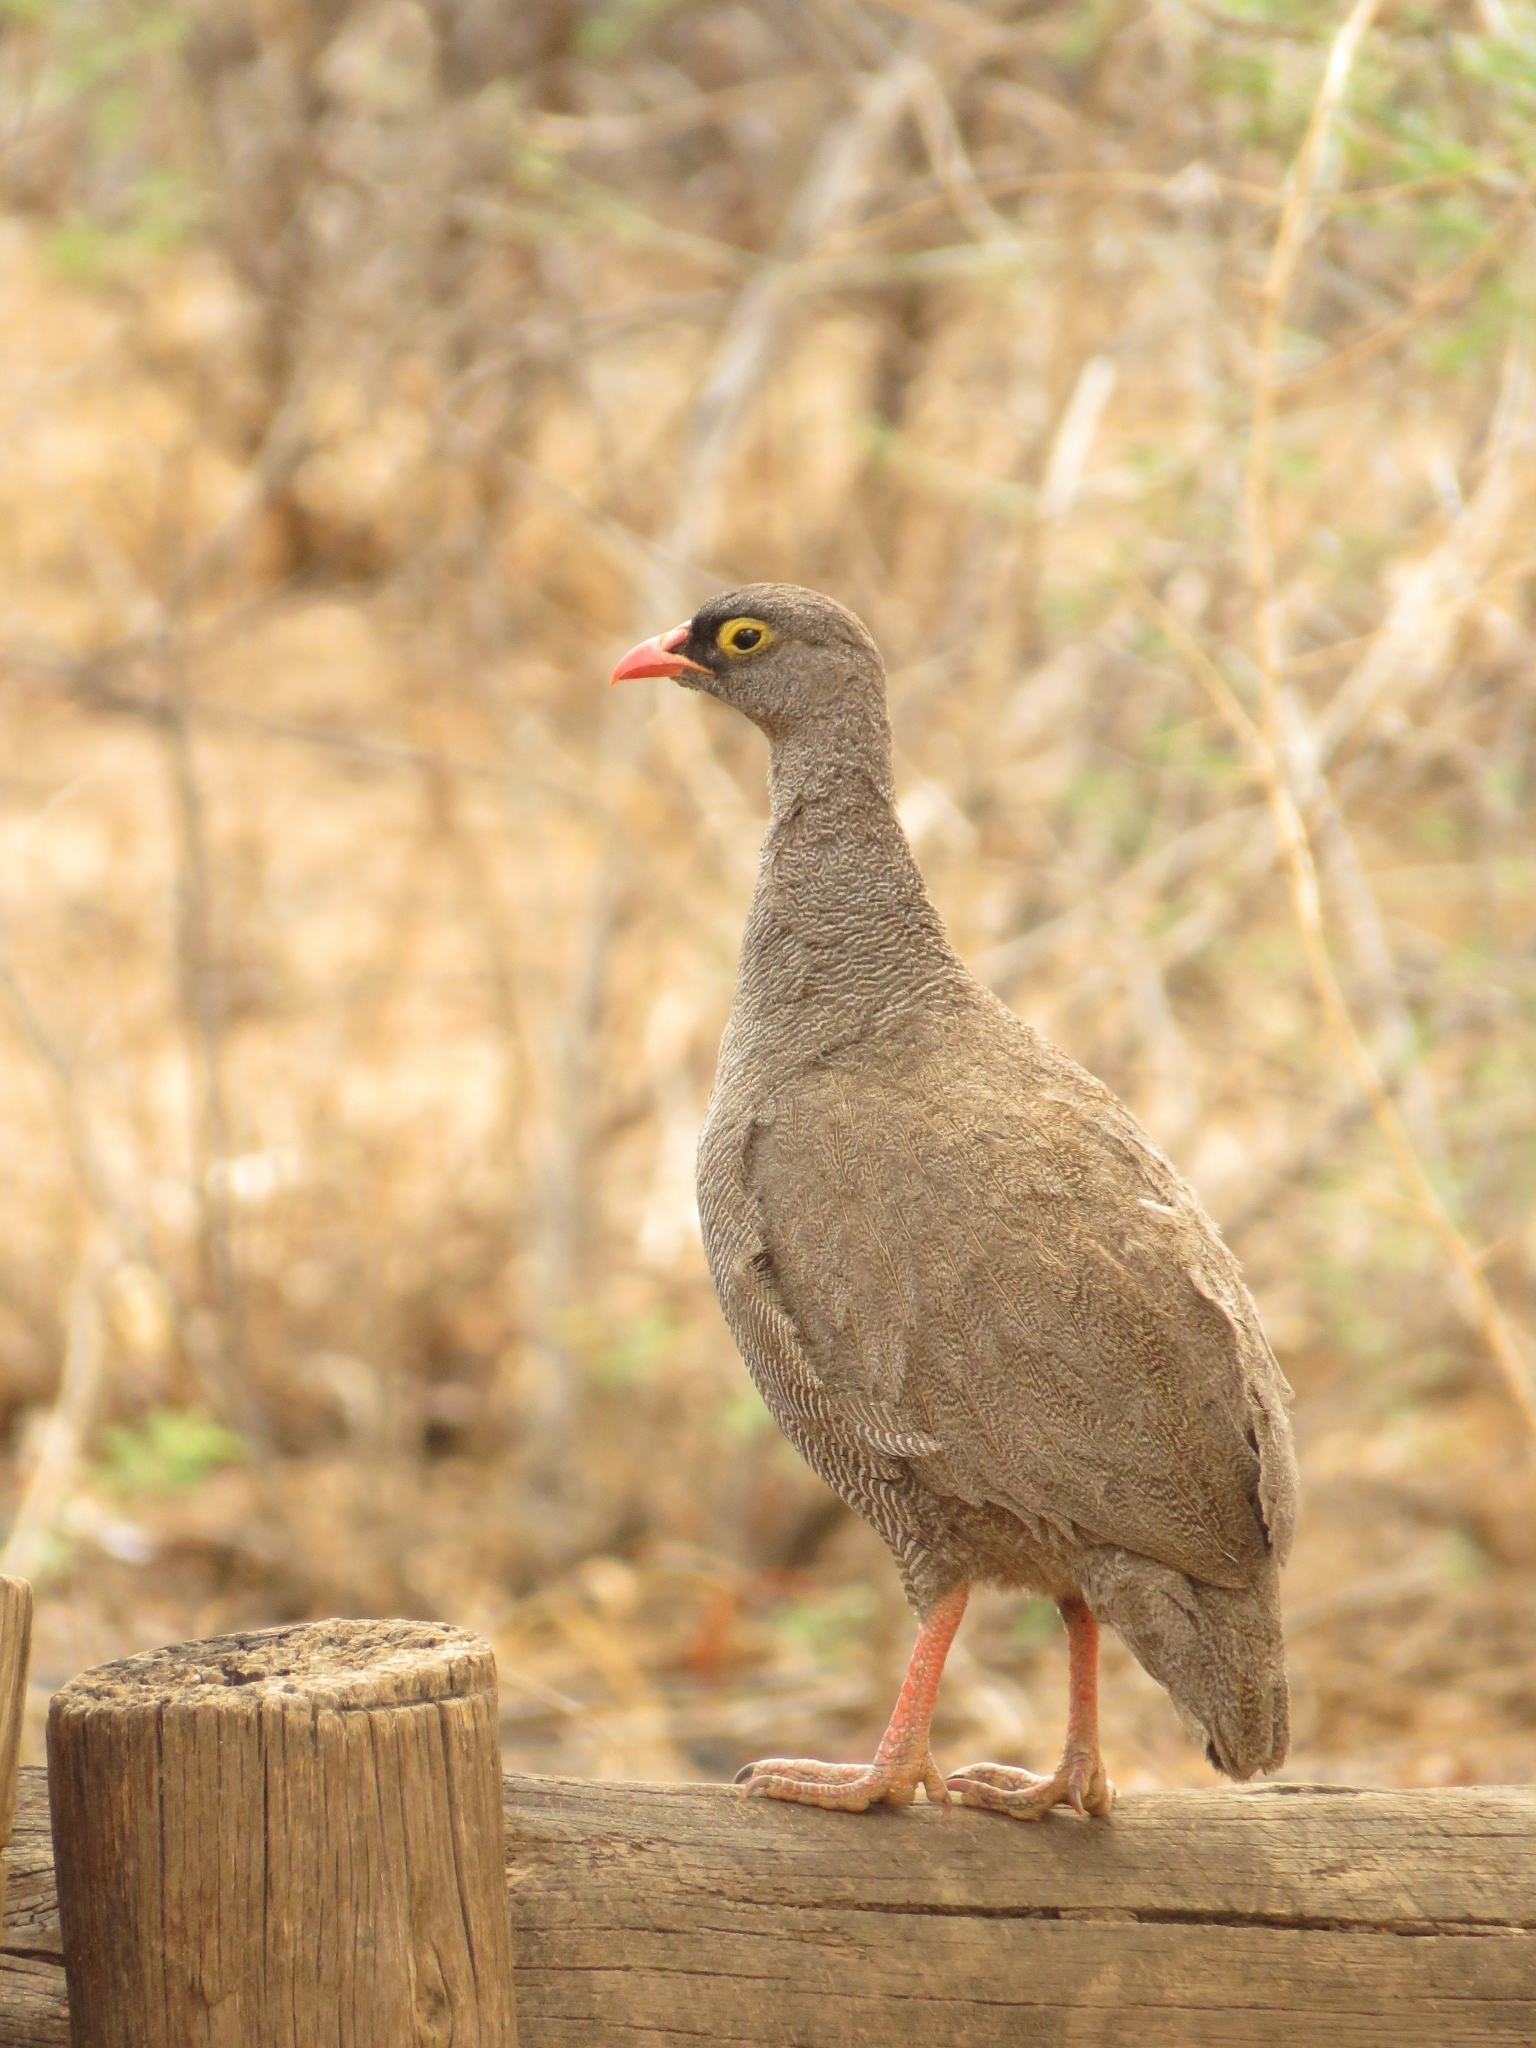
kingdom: Animalia
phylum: Chordata
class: Aves
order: Galliformes
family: Phasianidae
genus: Pternistis
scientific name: Pternistis adspersus
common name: Red-billed spurfowl
